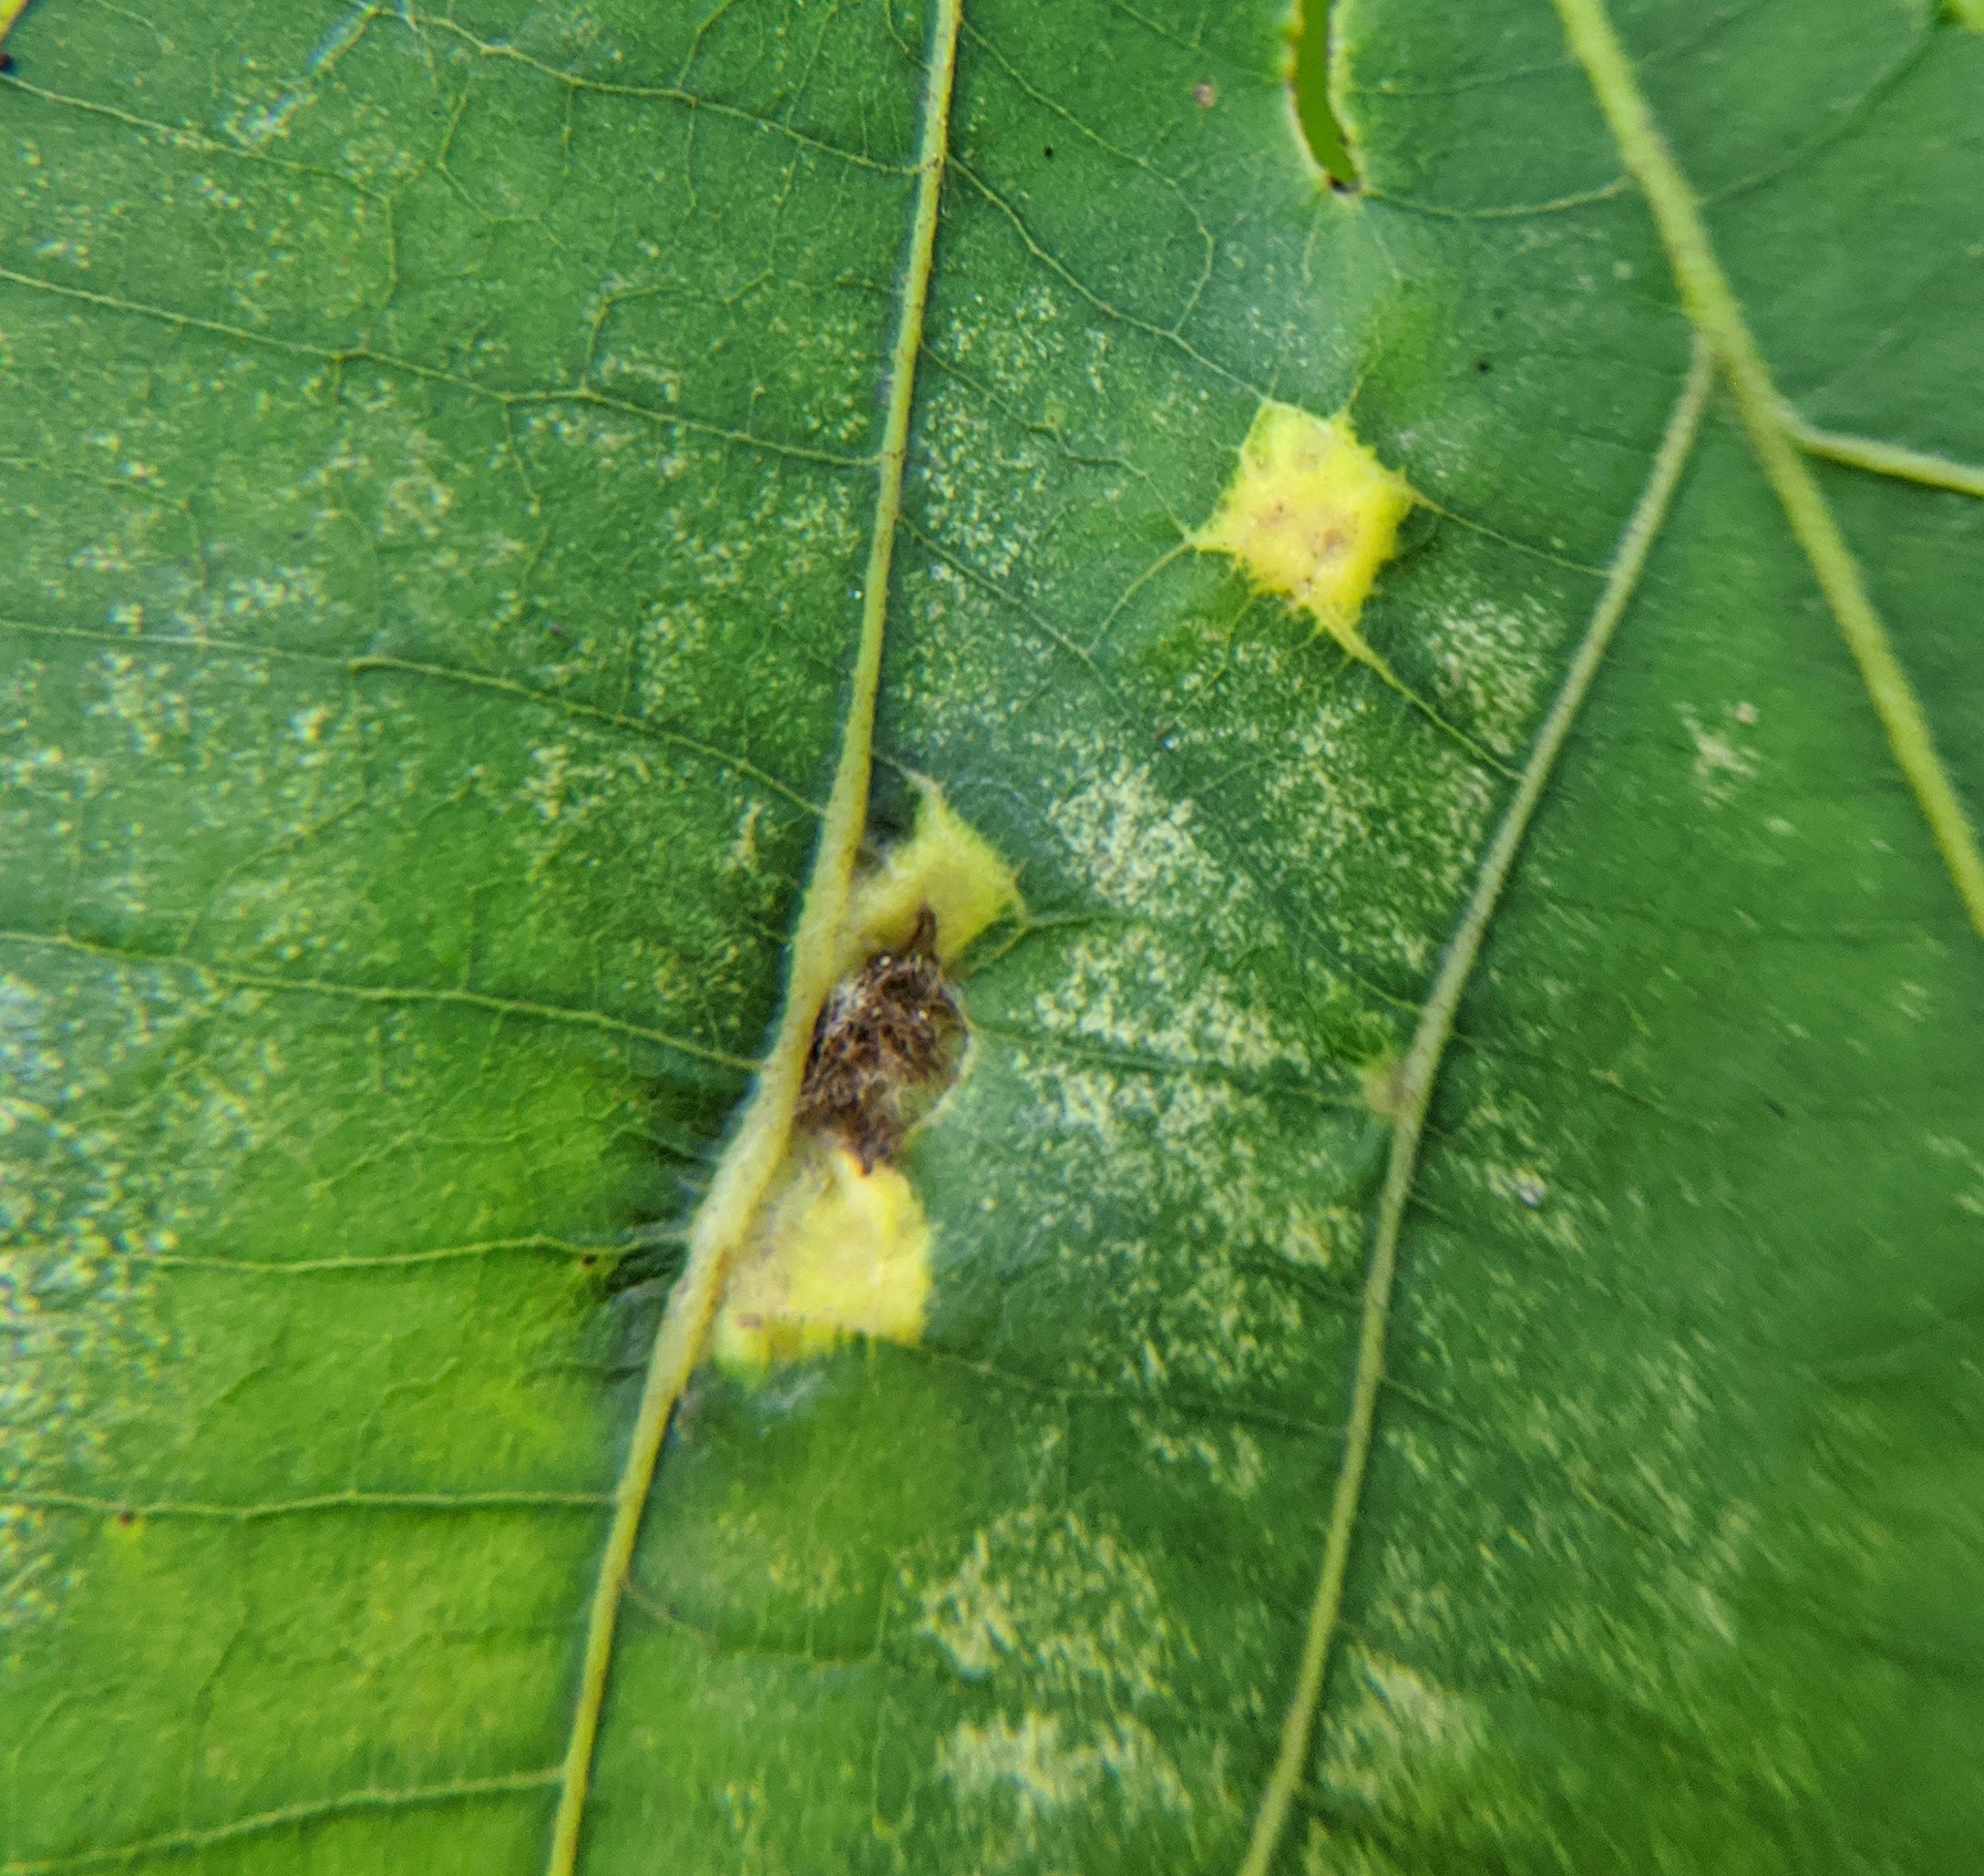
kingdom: Animalia
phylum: Arthropoda
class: Insecta
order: Diptera
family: Cecidomyiidae
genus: Caryomyia
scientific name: Caryomyia aggregata
